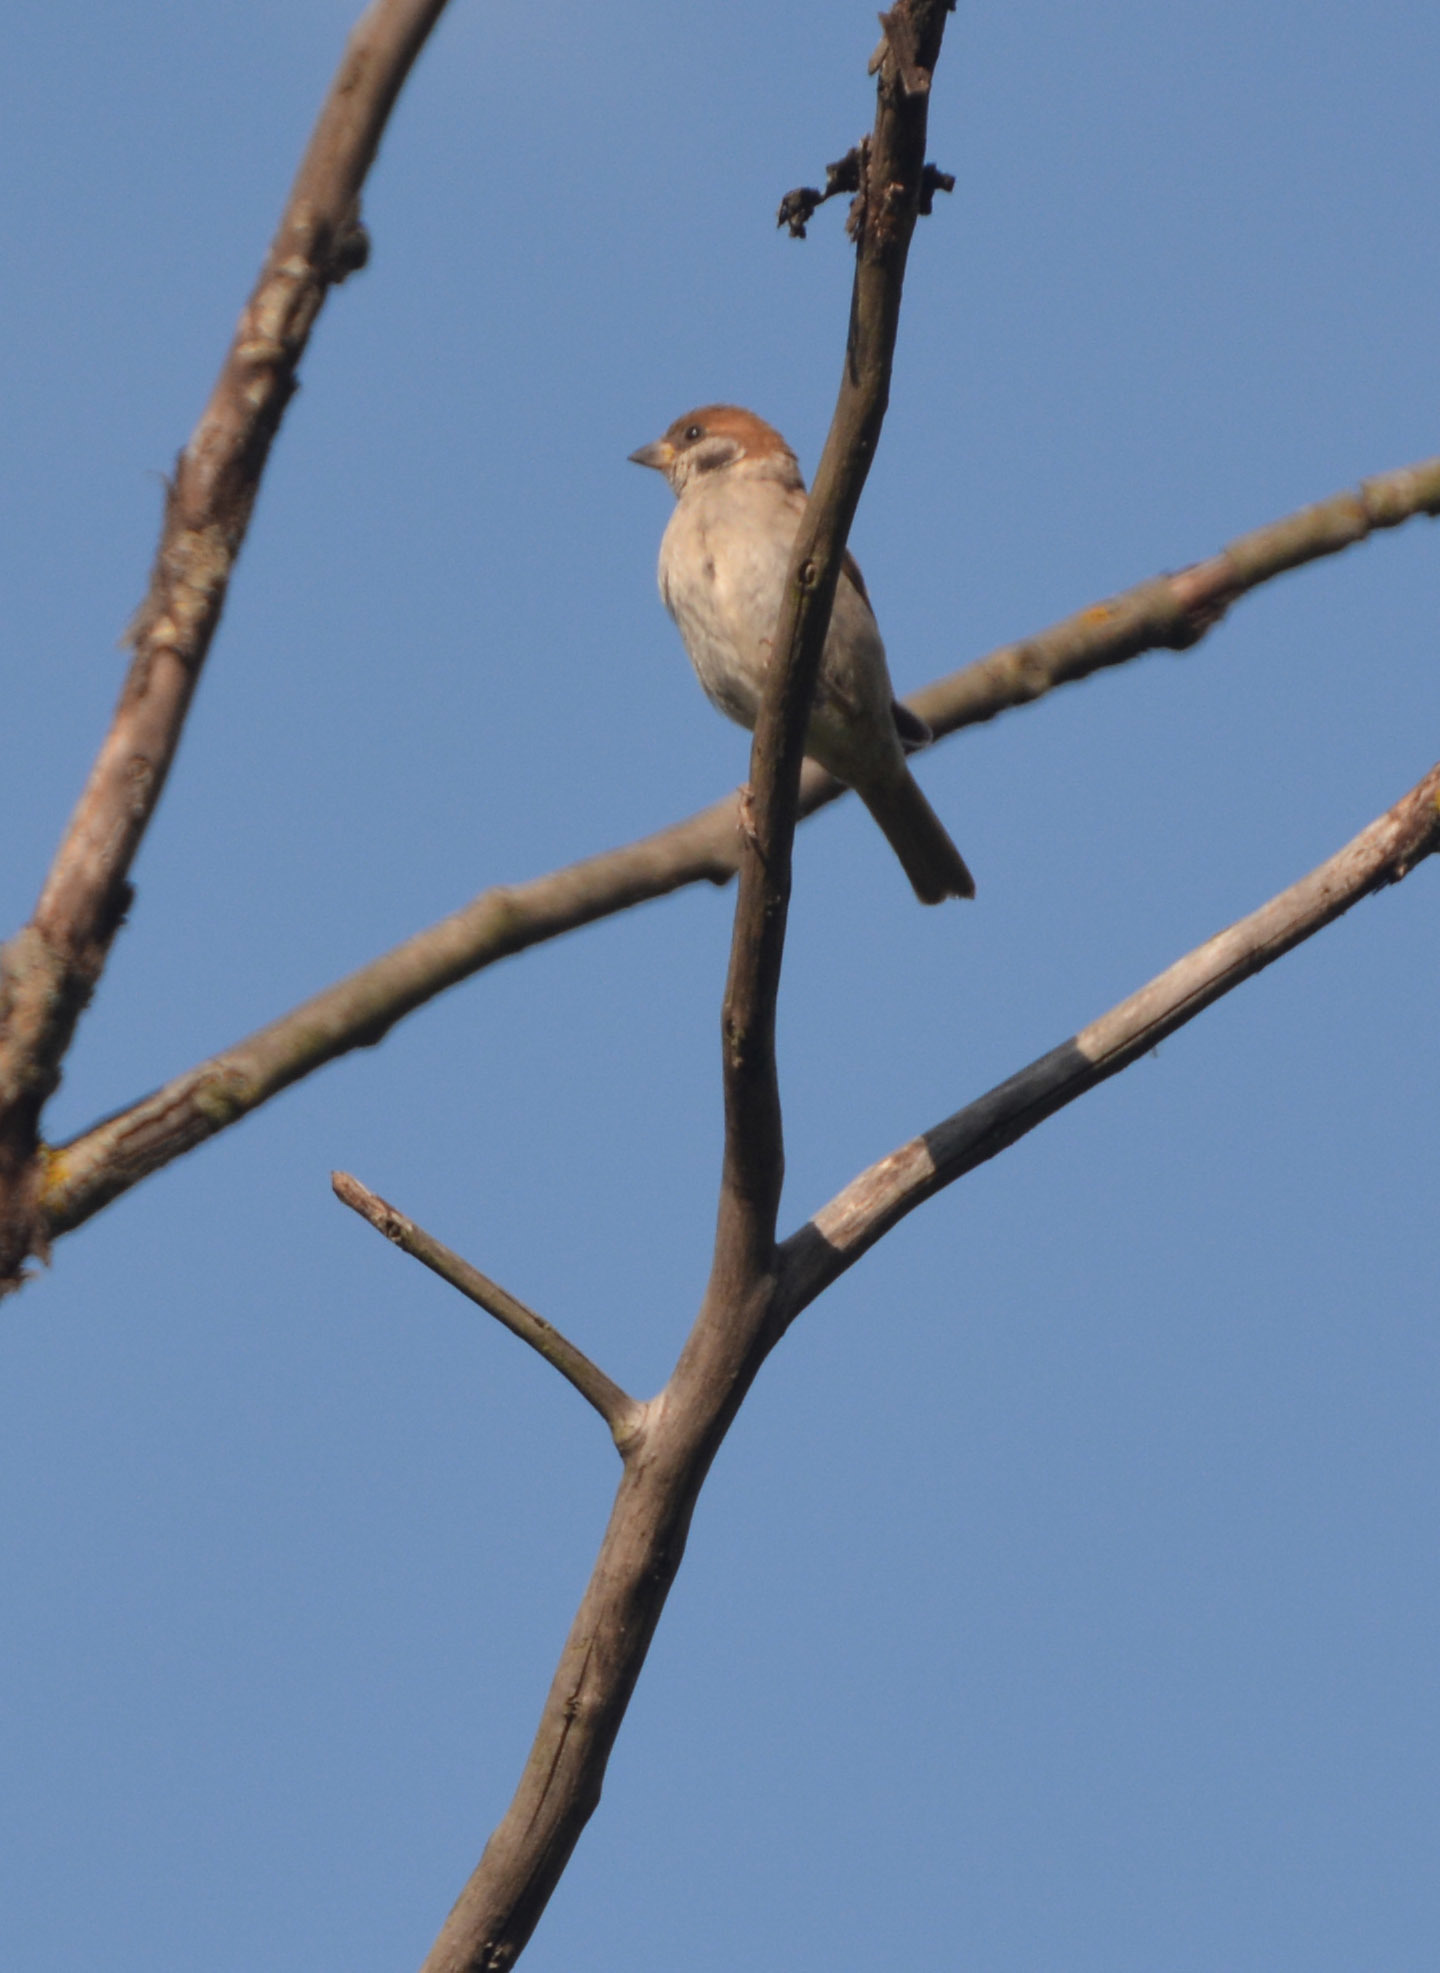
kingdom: Animalia
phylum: Chordata
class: Aves
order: Passeriformes
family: Passeridae
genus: Passer
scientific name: Passer montanus
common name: Eurasian tree sparrow
